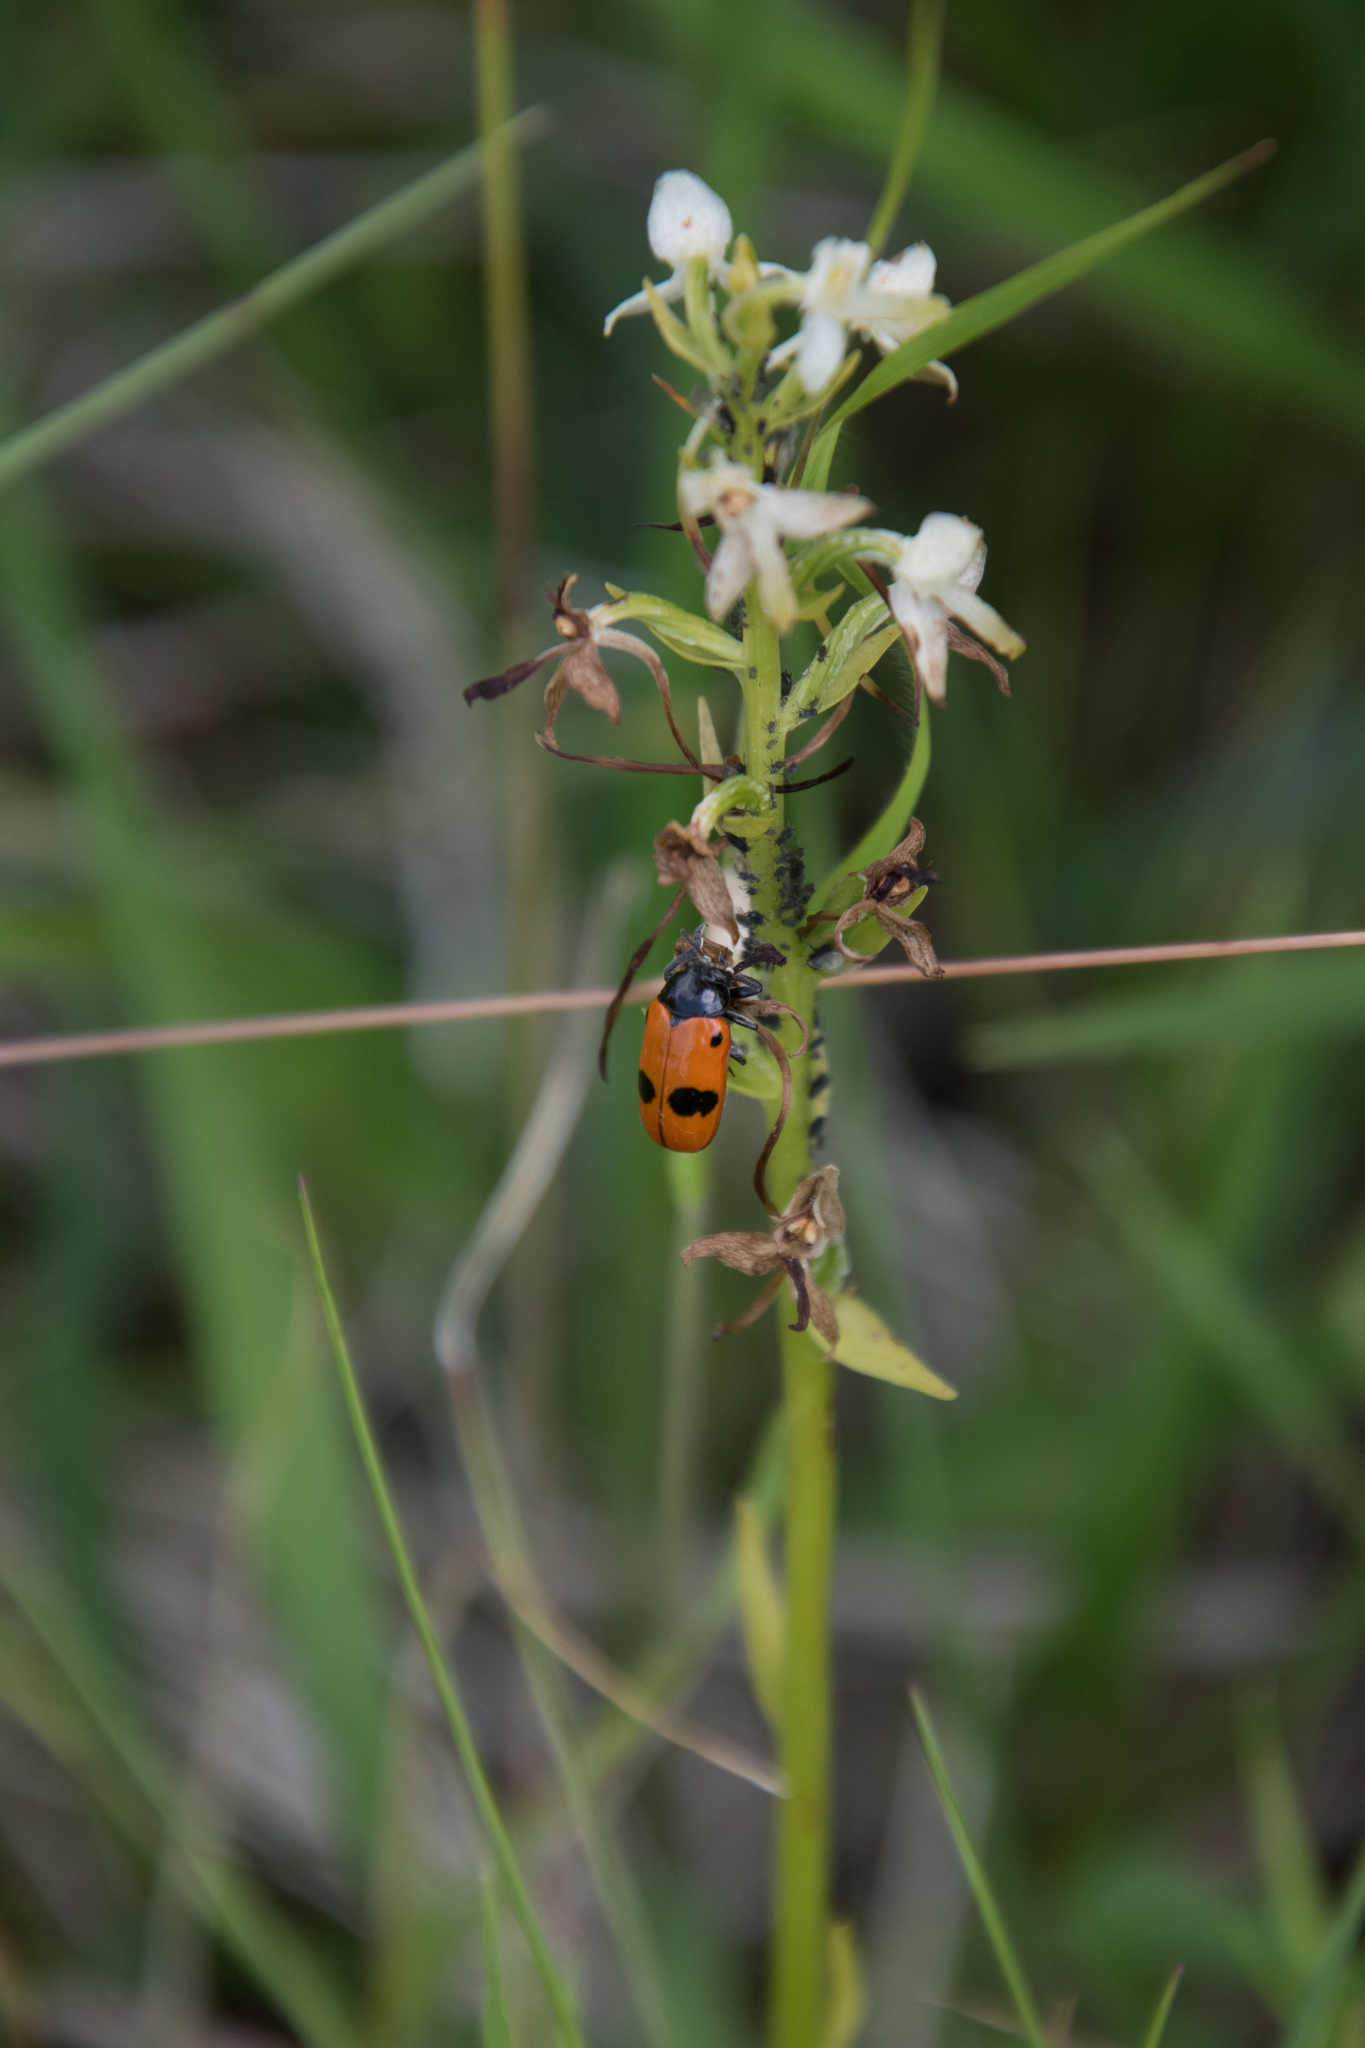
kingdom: Animalia
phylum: Arthropoda
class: Insecta
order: Coleoptera
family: Chrysomelidae
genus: Clytra
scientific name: Clytra laeviuscula
